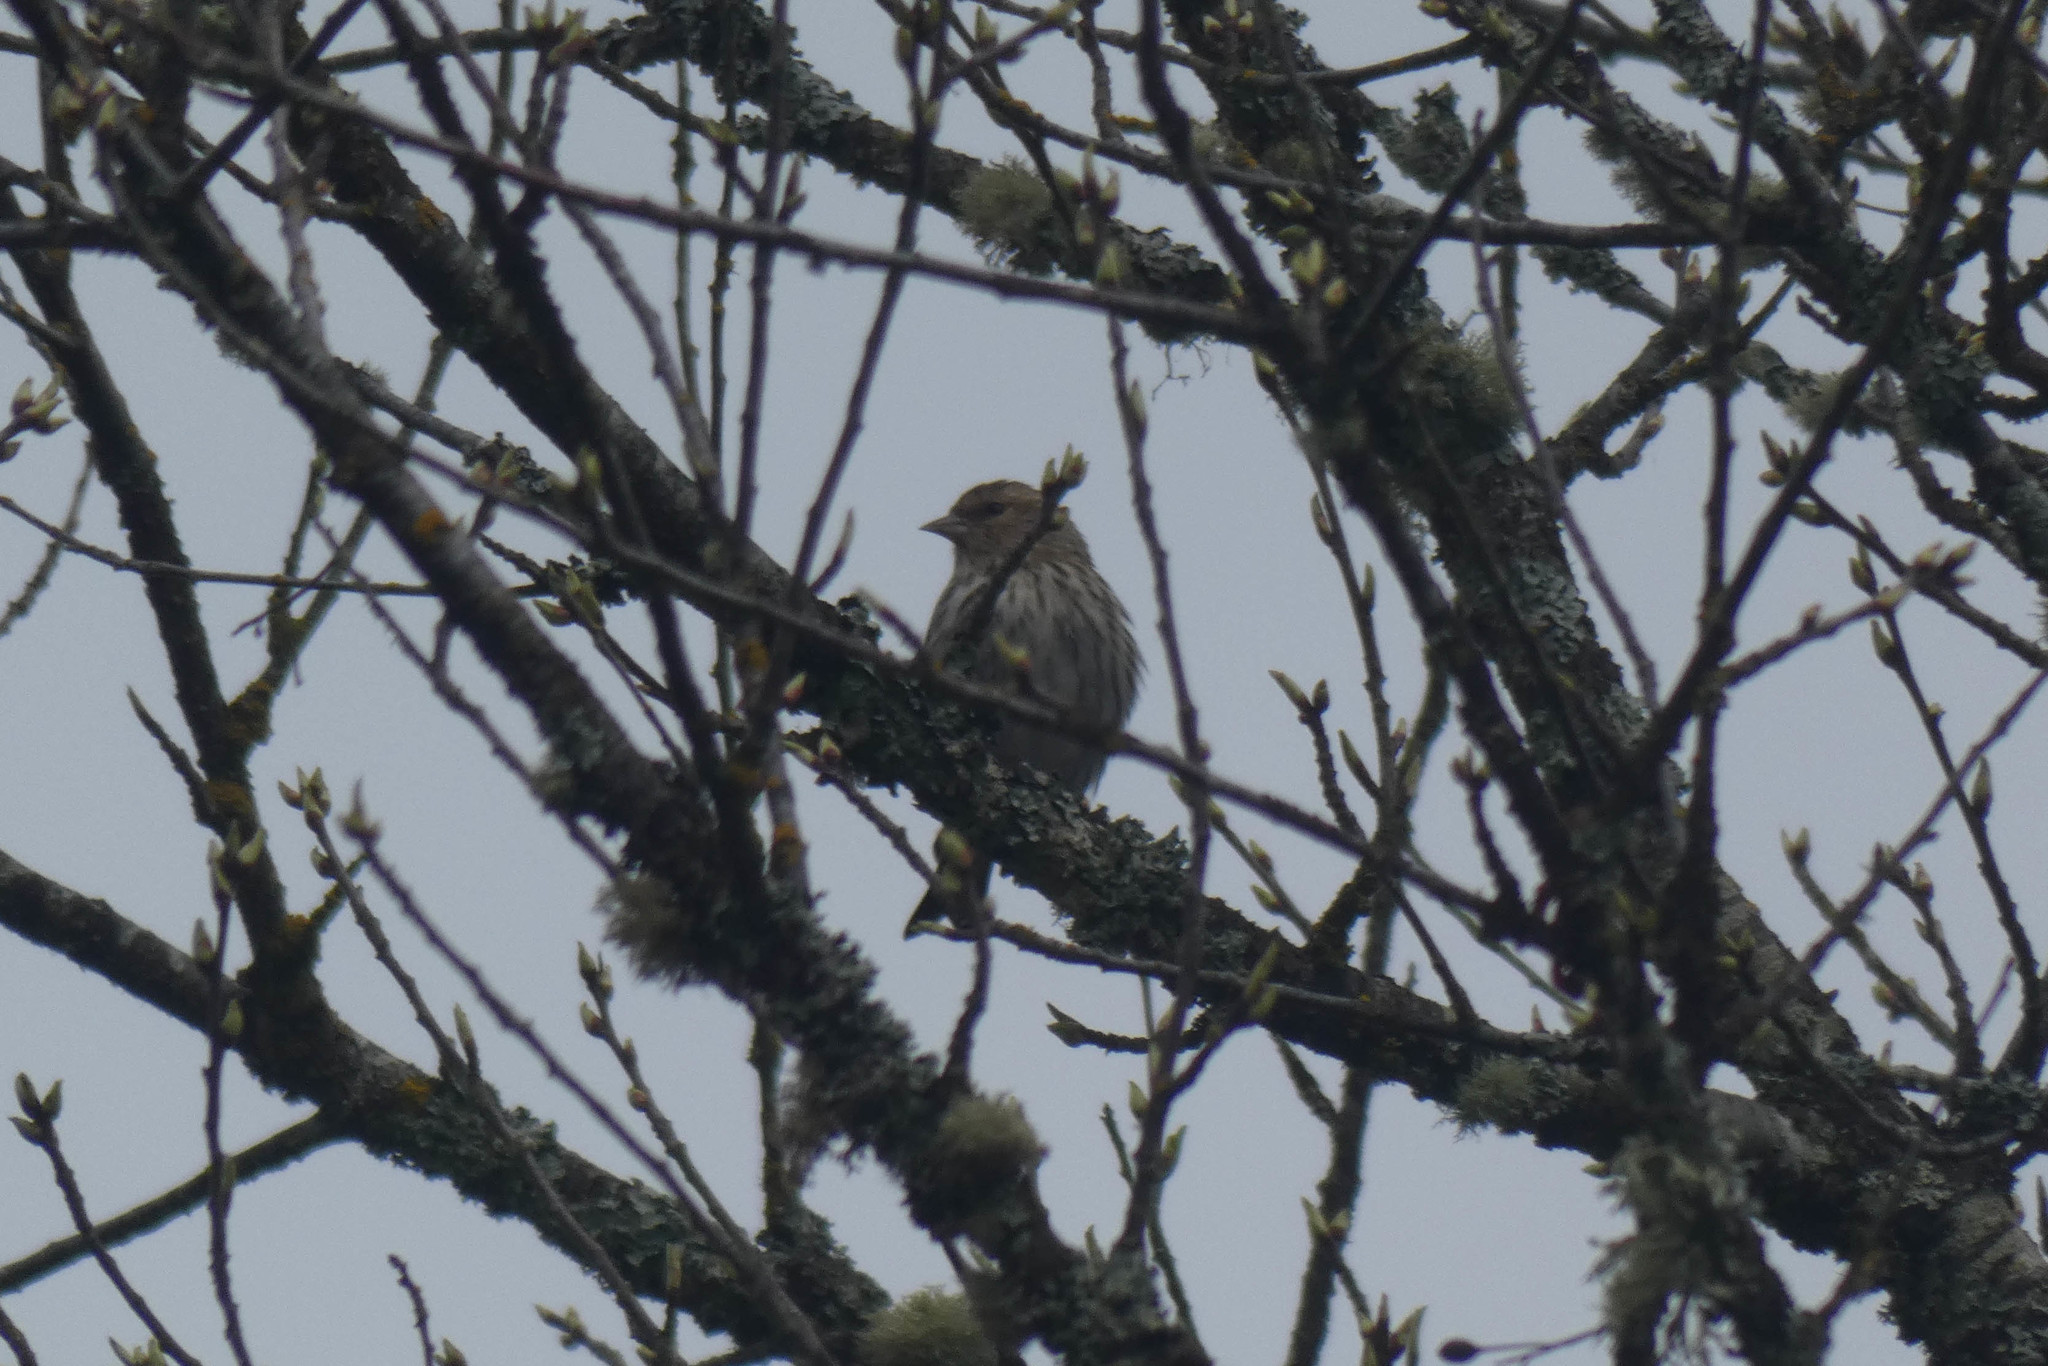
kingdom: Animalia
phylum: Chordata
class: Aves
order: Passeriformes
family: Fringillidae
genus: Spinus
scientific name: Spinus pinus
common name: Pine siskin
